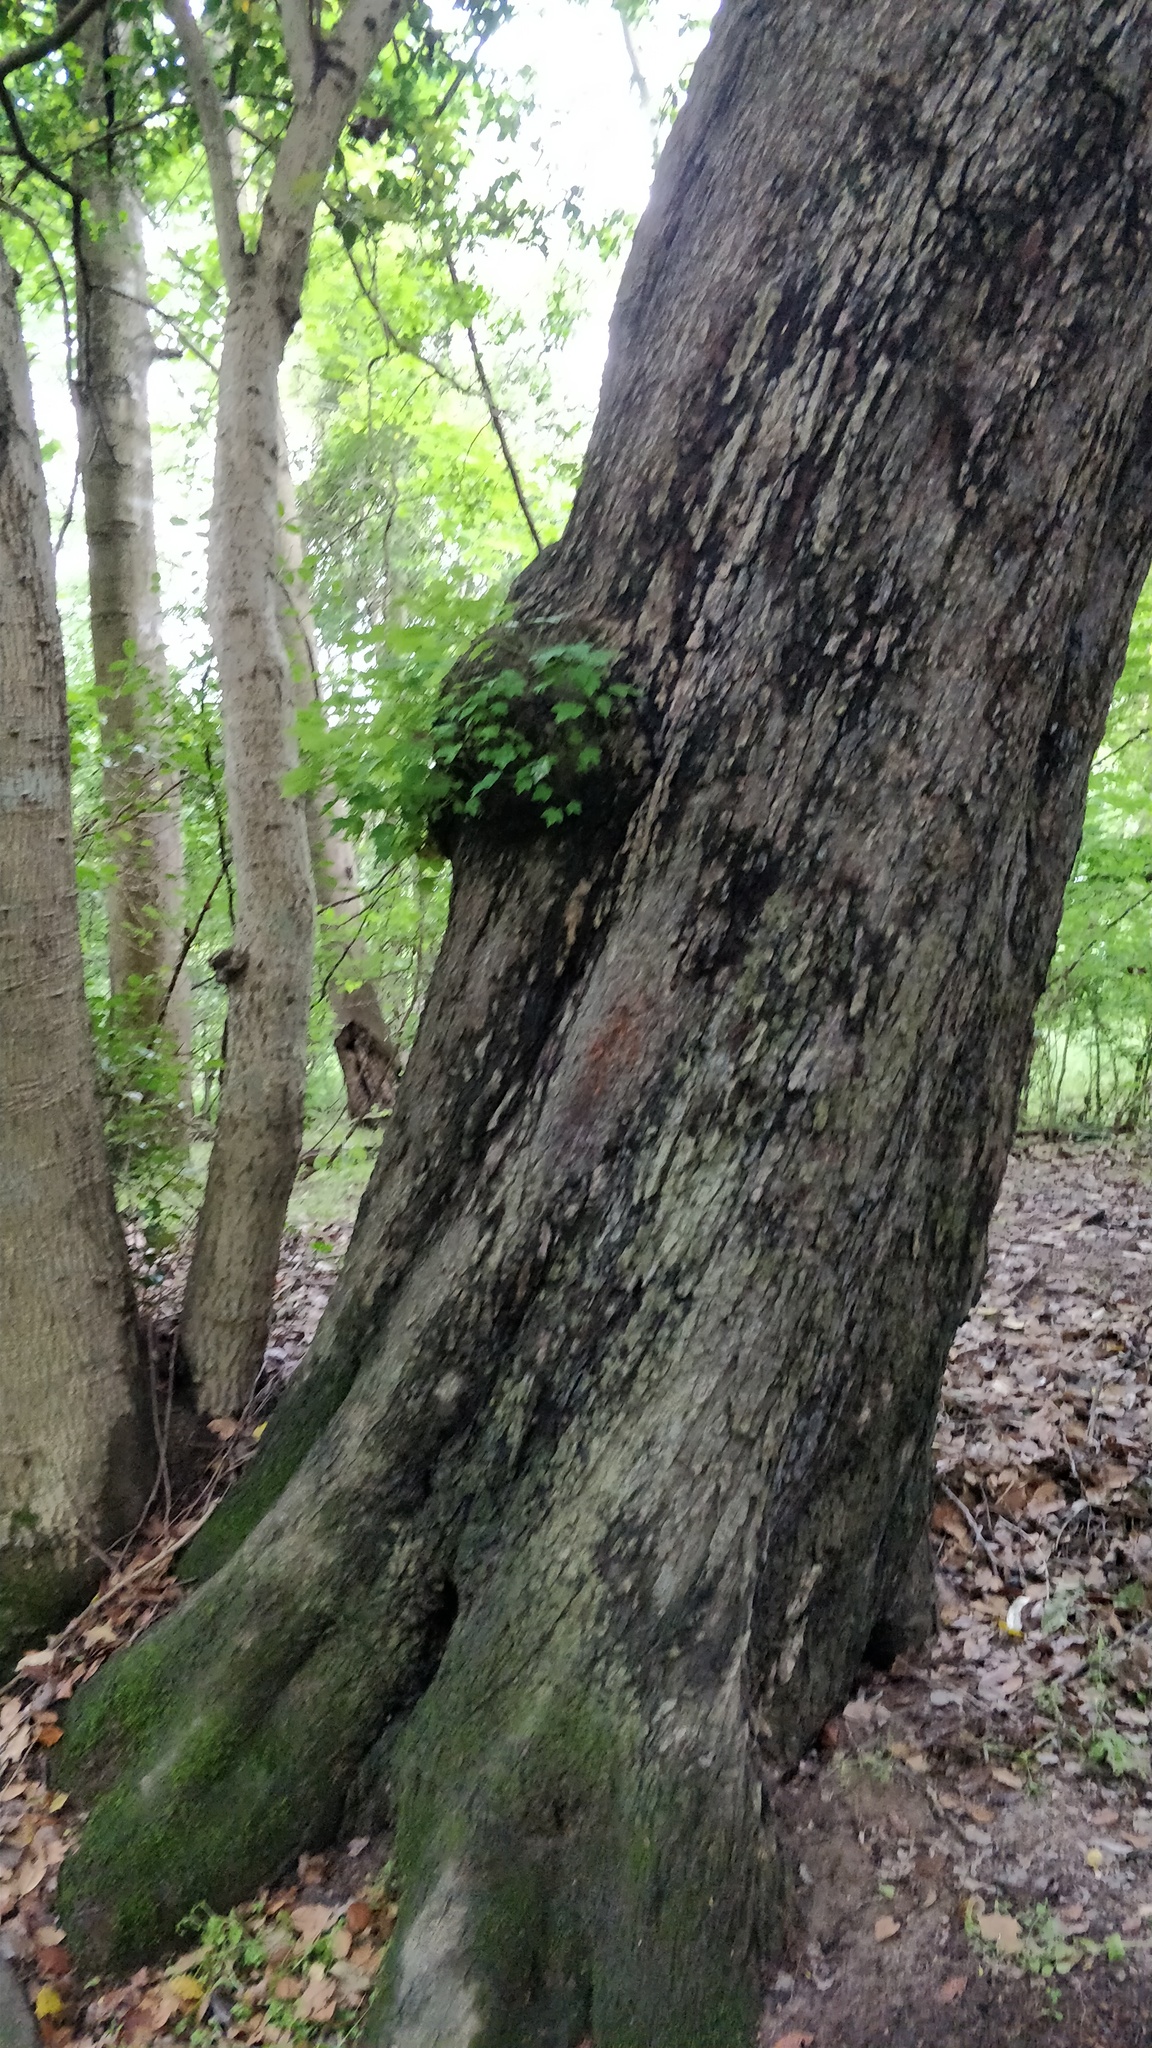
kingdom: Plantae
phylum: Tracheophyta
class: Magnoliopsida
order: Sapindales
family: Sapindaceae
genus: Acer
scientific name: Acer rubrum
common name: Red maple
